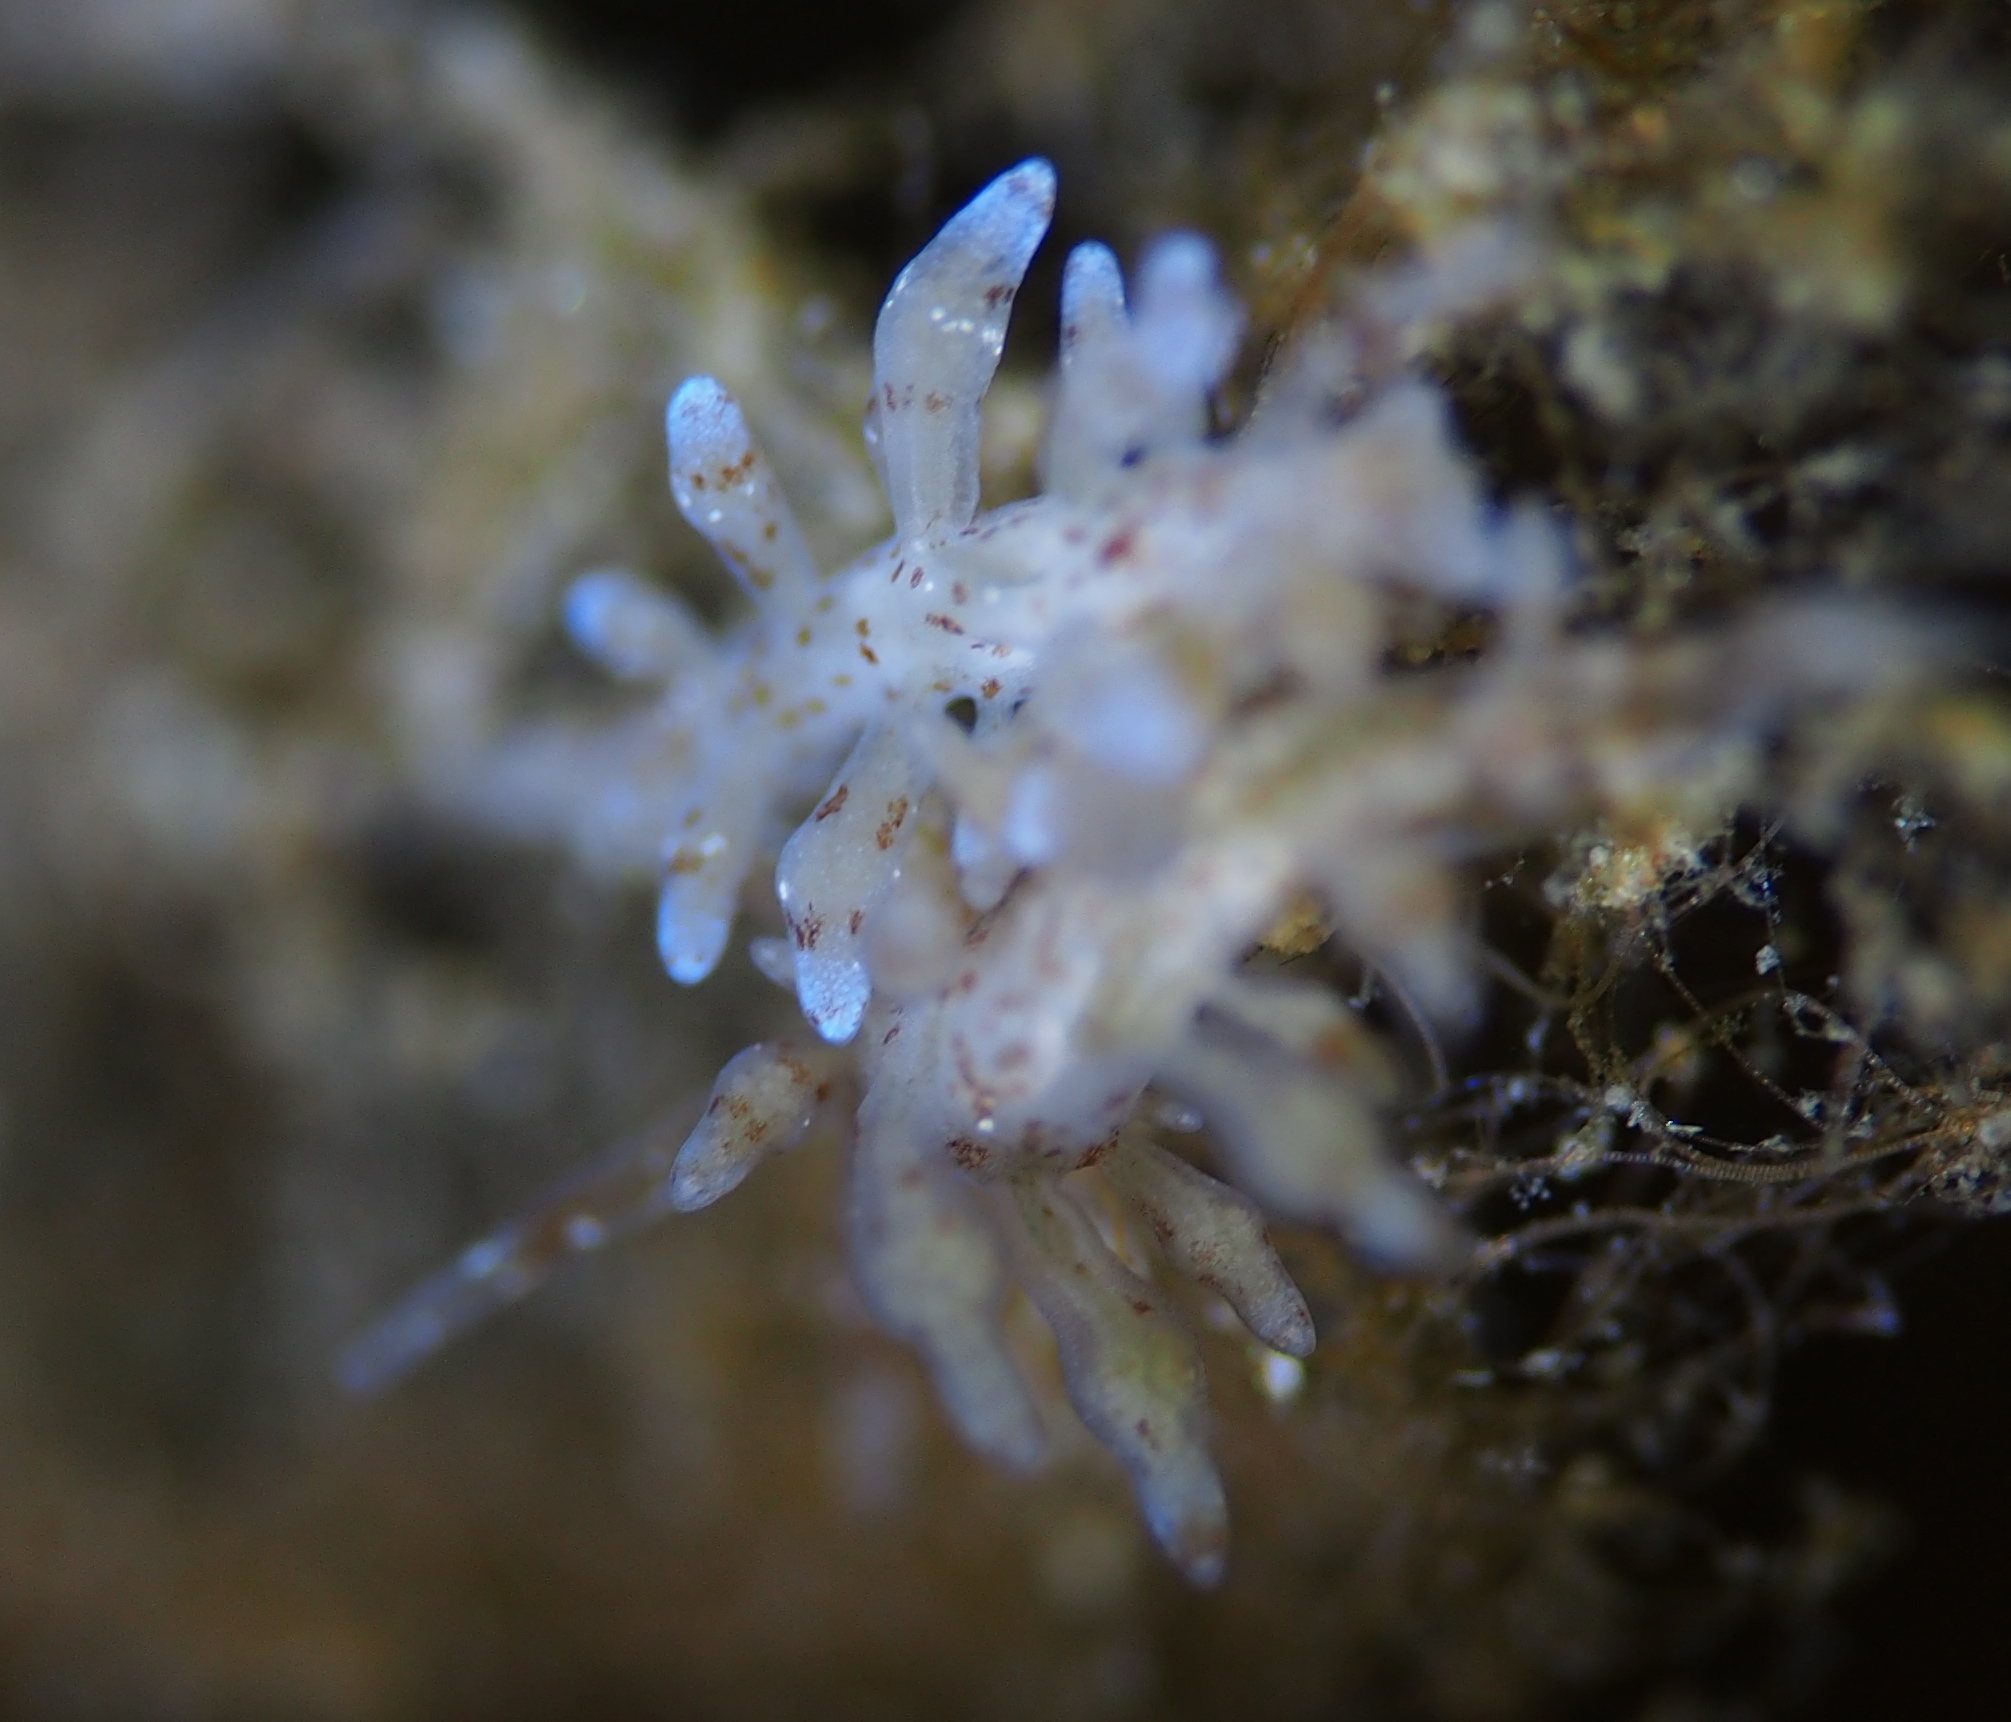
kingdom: Animalia
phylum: Mollusca
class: Gastropoda
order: Nudibranchia
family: Eubranchidae
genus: Eubranchus
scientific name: Eubranchus rupium
